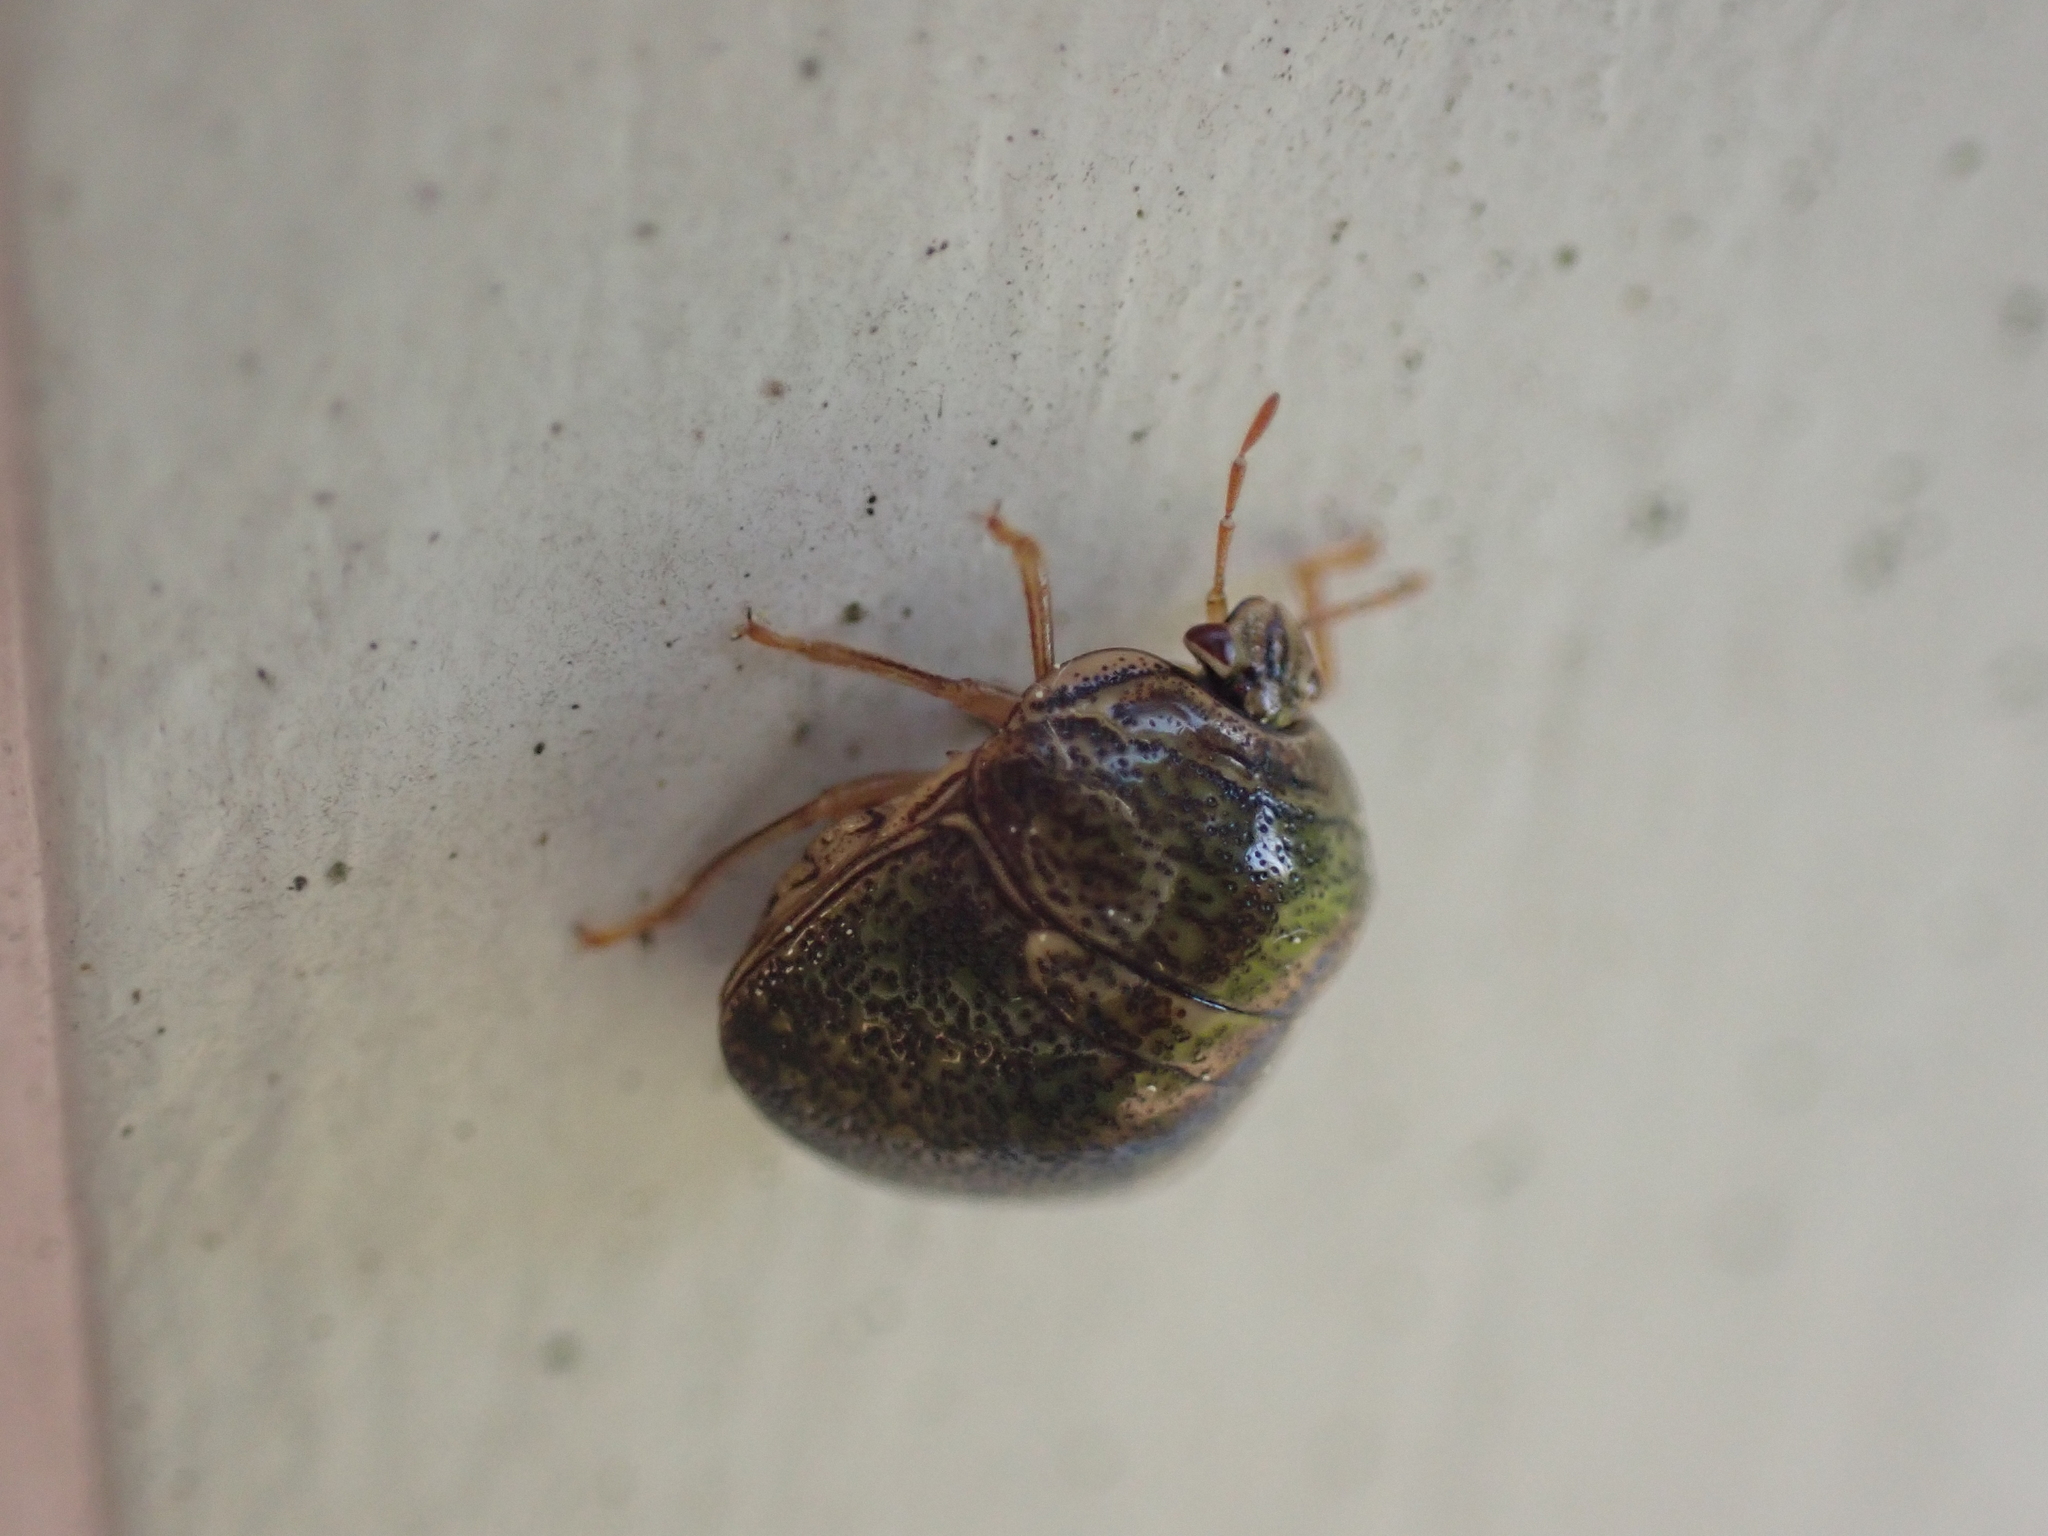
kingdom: Animalia
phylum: Arthropoda
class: Insecta
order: Hemiptera
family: Plataspidae
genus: Megacopta
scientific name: Megacopta cribraria
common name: Bean plataspid
